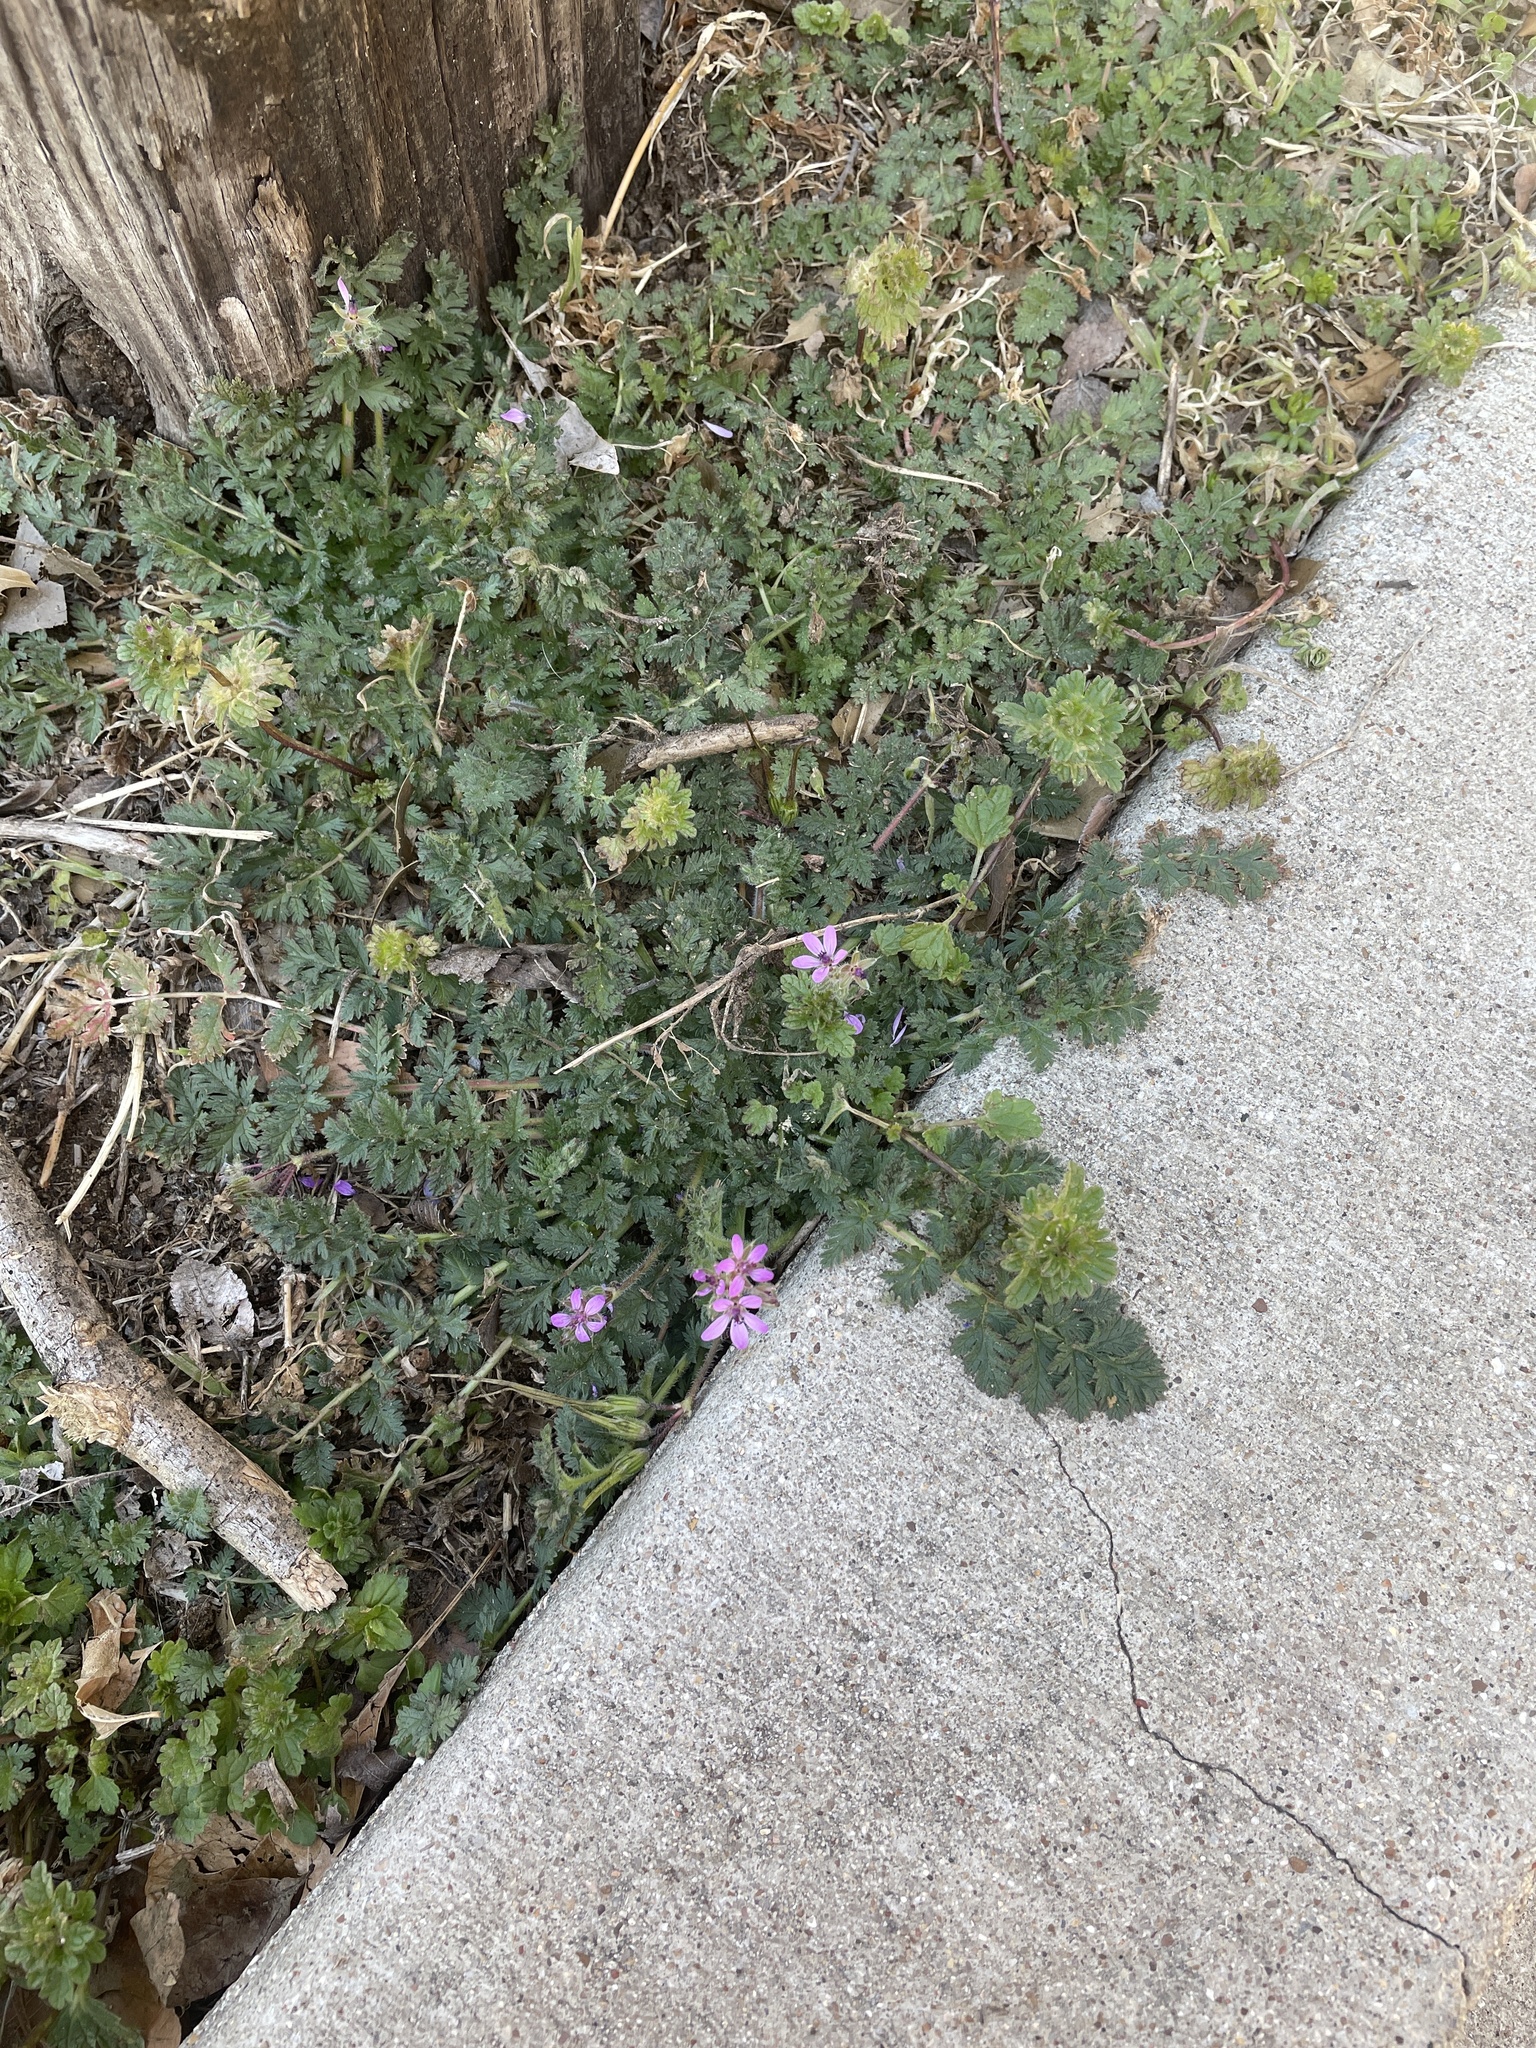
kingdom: Plantae
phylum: Tracheophyta
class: Magnoliopsida
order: Geraniales
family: Geraniaceae
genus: Erodium
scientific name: Erodium cicutarium
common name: Common stork's-bill
